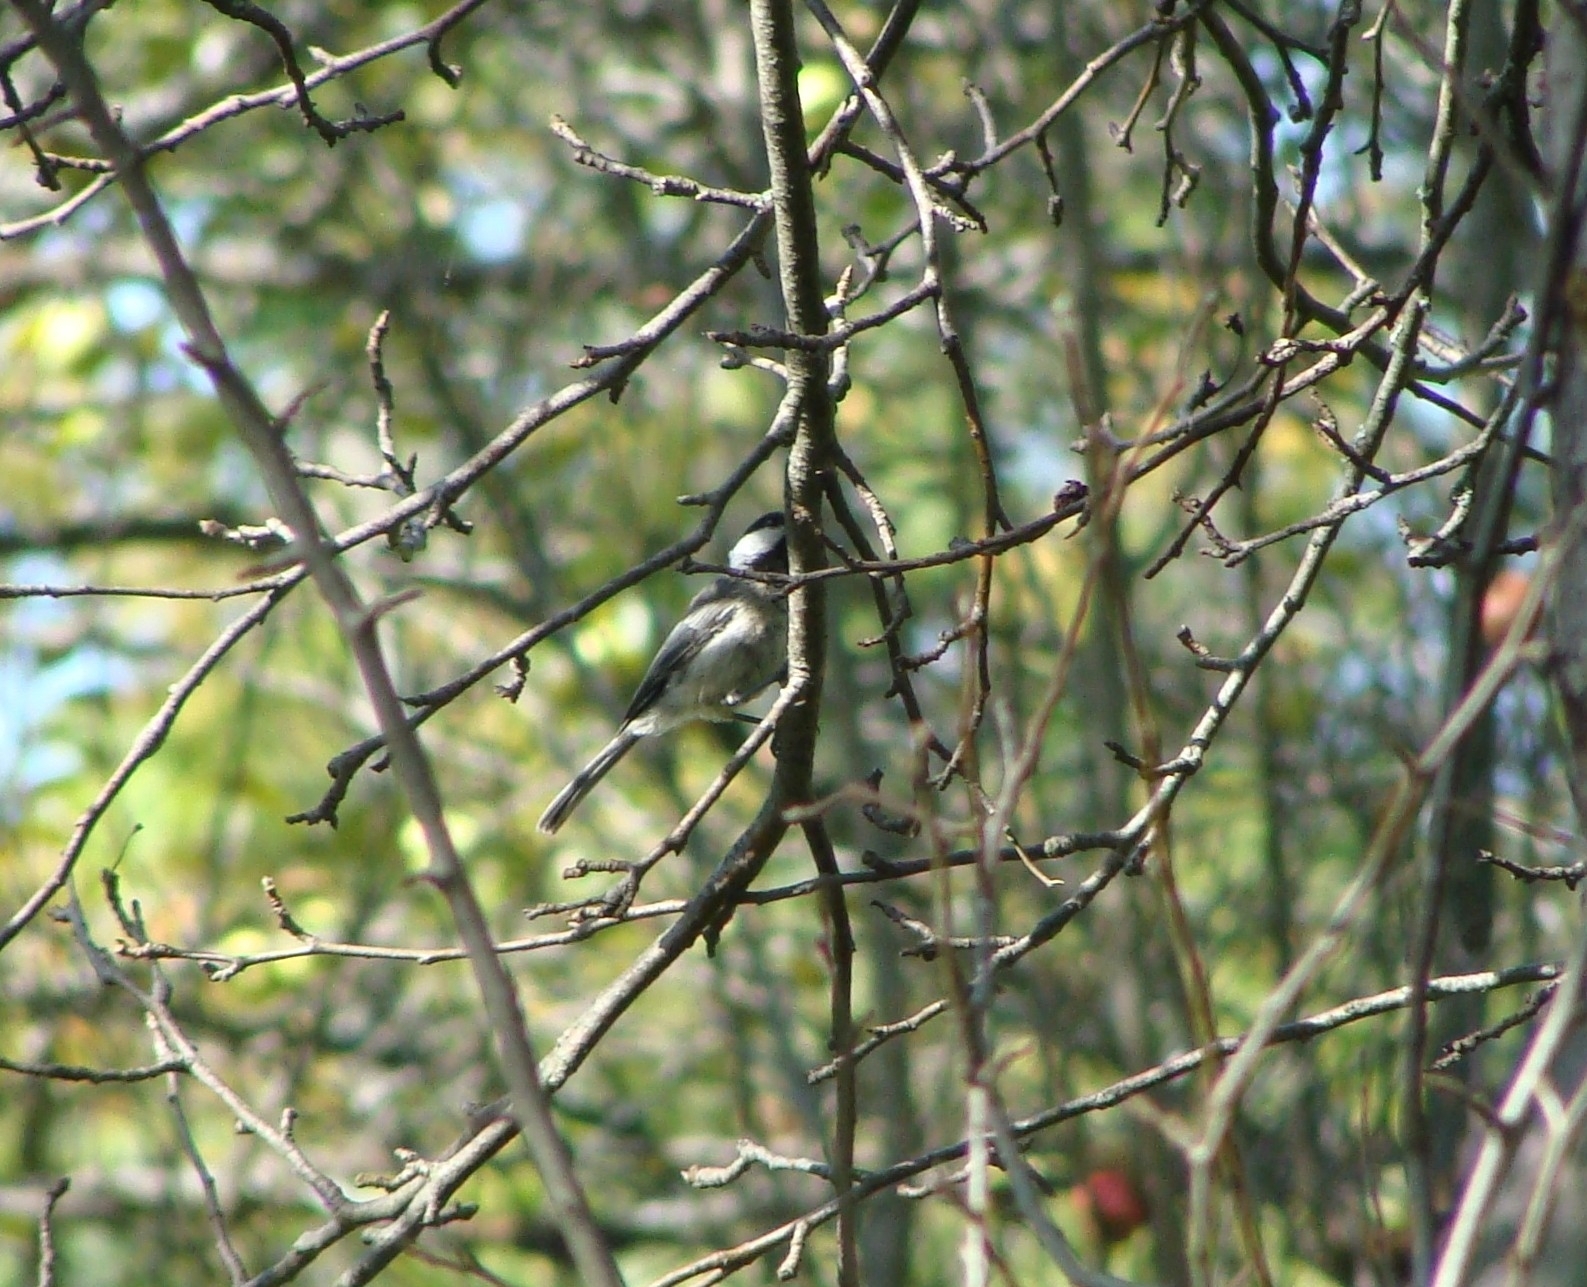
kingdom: Animalia
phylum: Chordata
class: Aves
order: Passeriformes
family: Paridae
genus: Poecile
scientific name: Poecile atricapillus
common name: Black-capped chickadee
